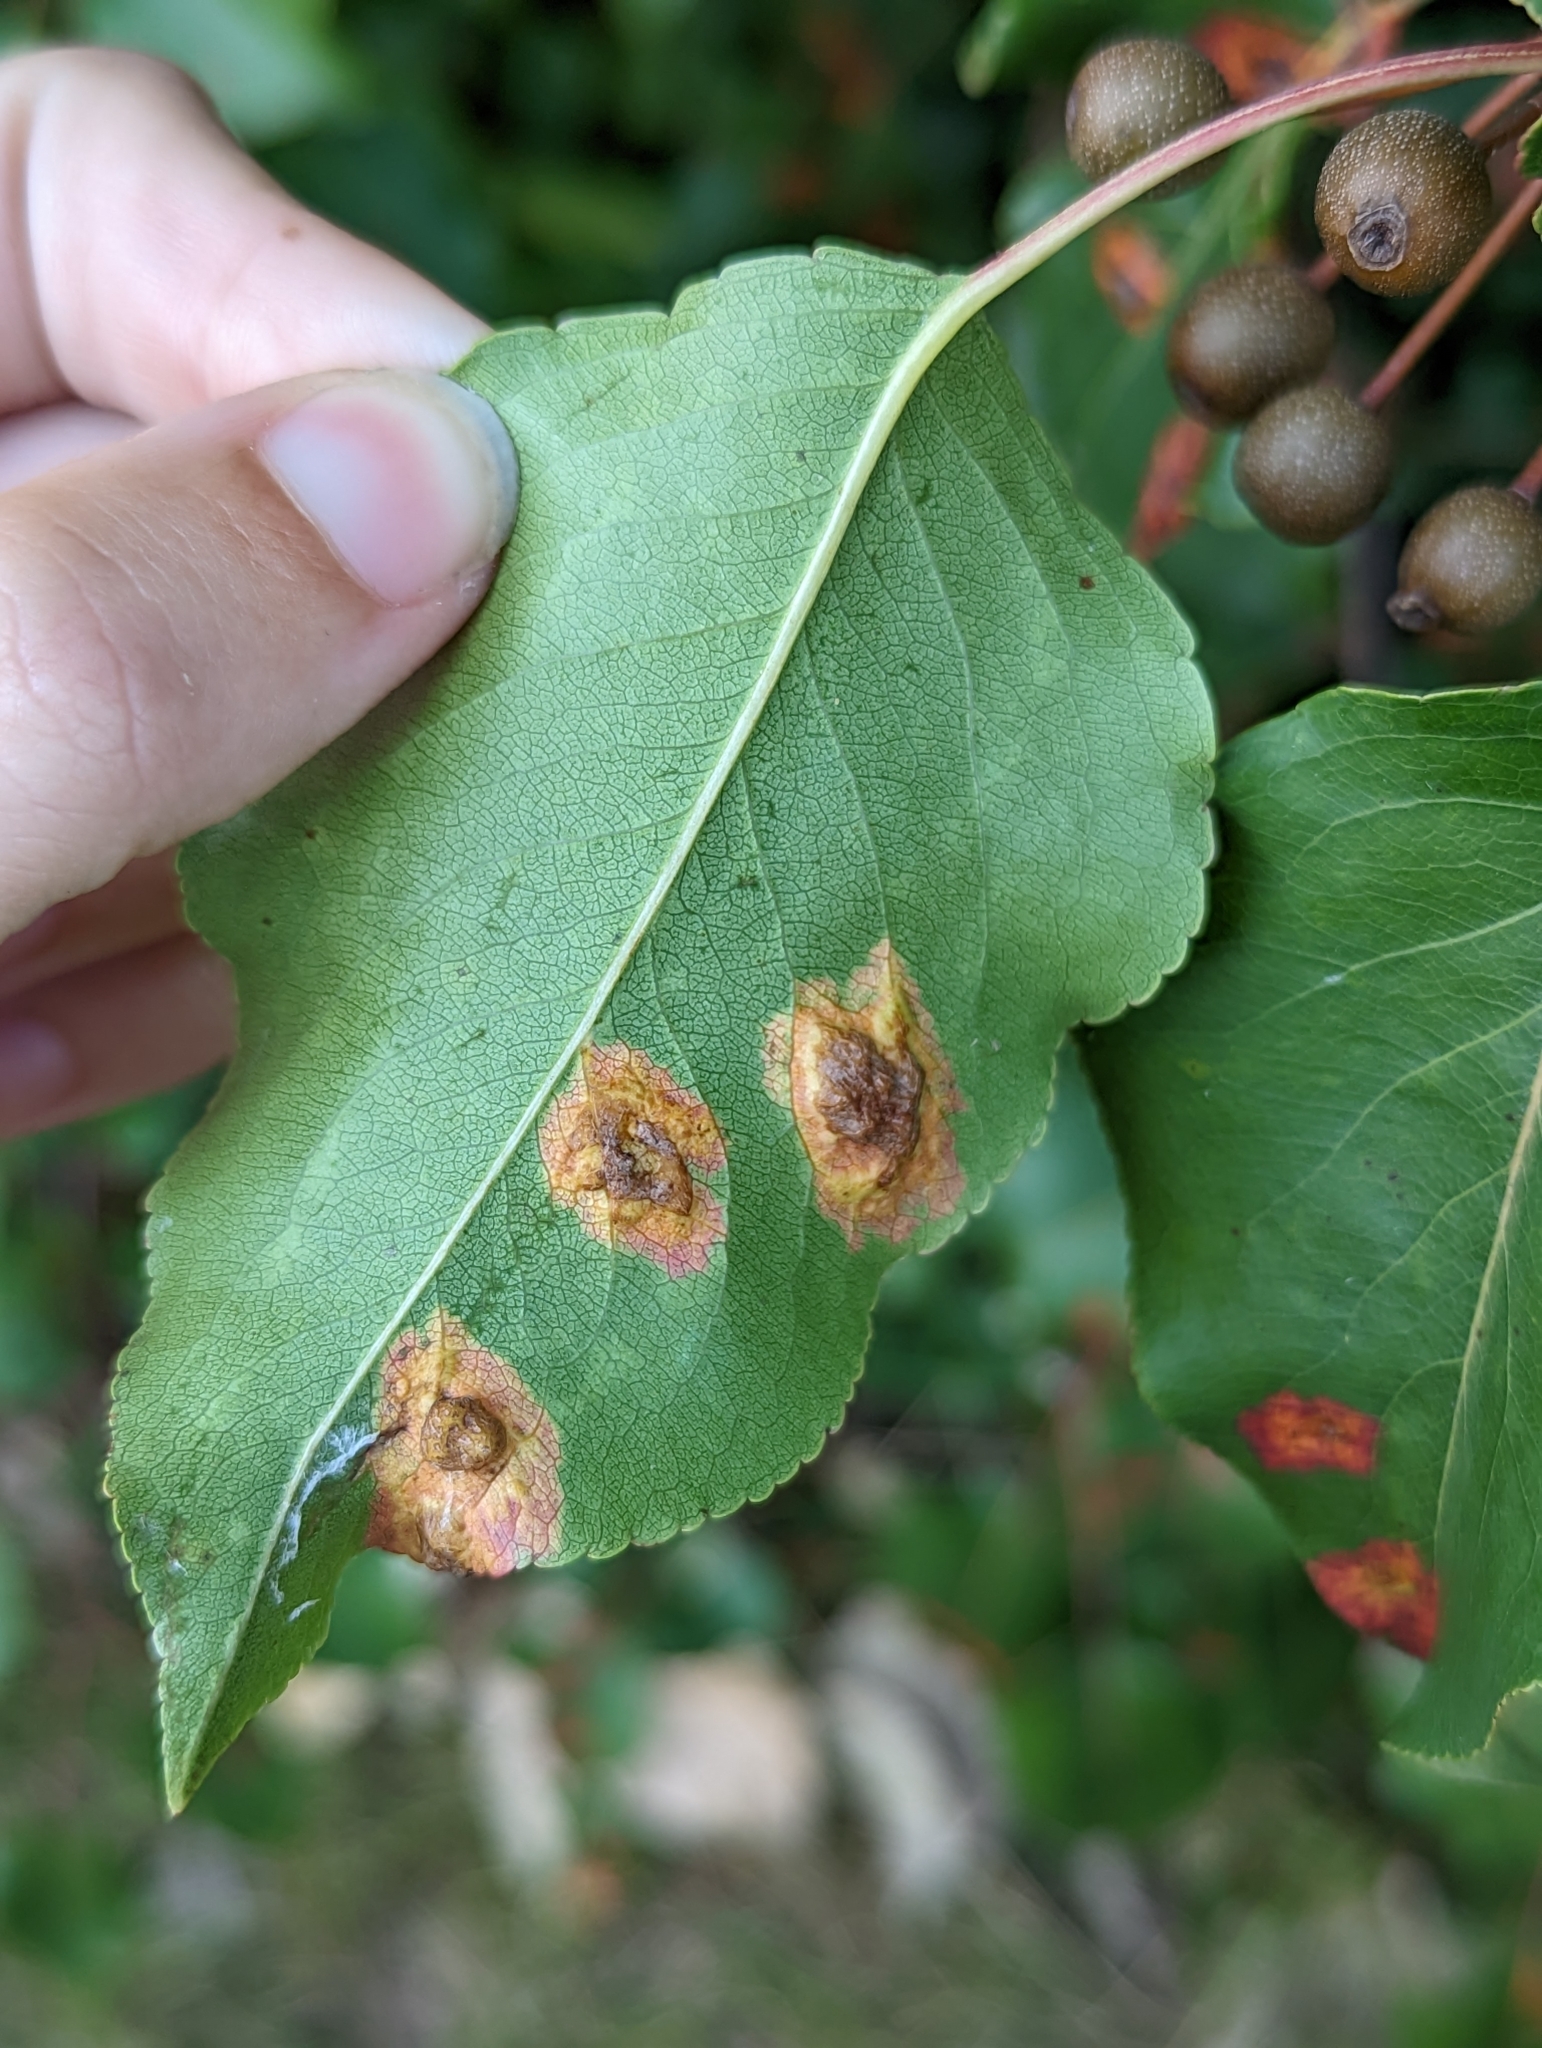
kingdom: Fungi
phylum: Basidiomycota
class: Pucciniomycetes
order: Pucciniales
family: Gymnosporangiaceae
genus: Gymnosporangium
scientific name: Gymnosporangium sabinae
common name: Pear trellis rust fungus
